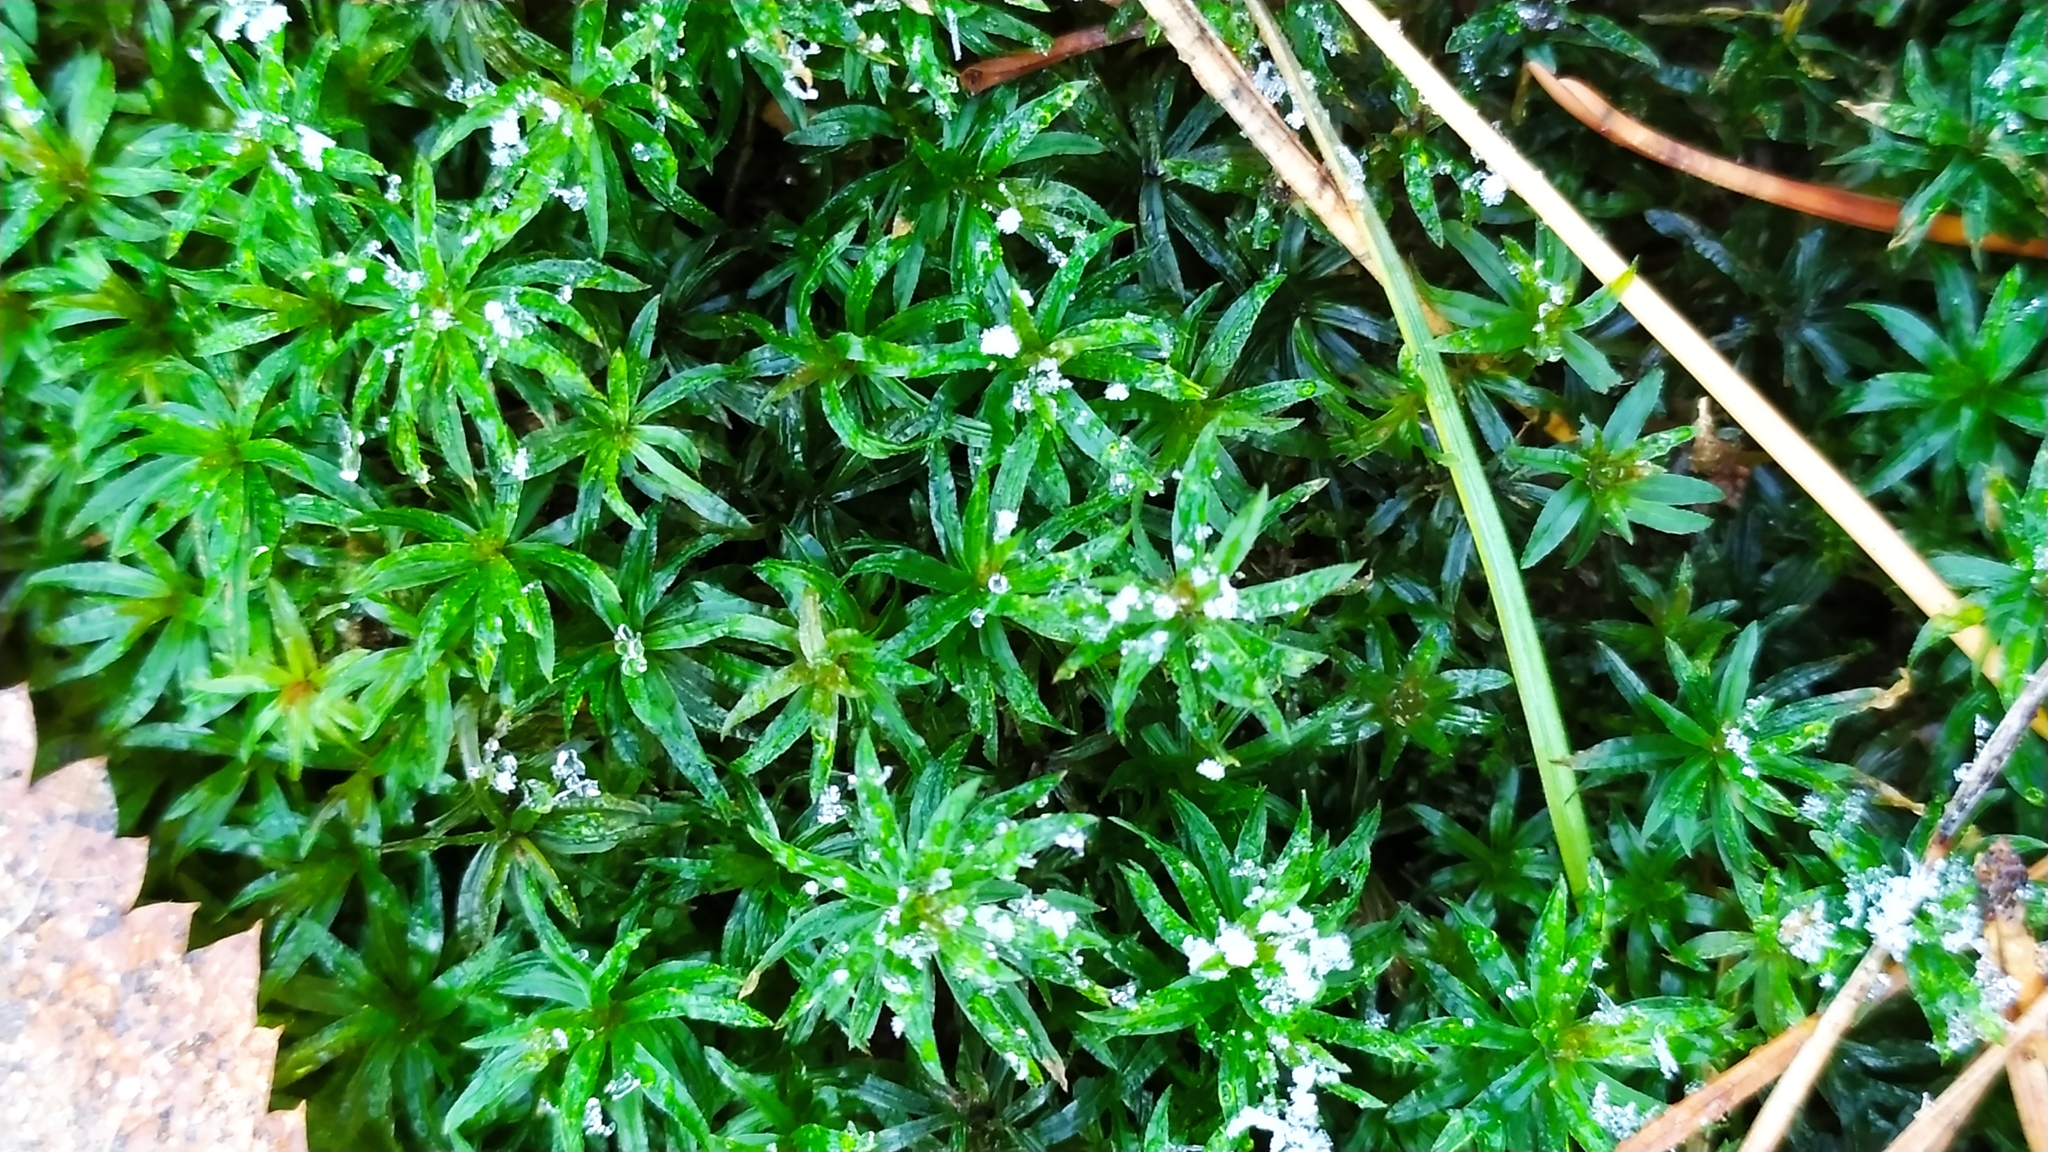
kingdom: Plantae
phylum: Bryophyta
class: Polytrichopsida
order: Polytrichales
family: Polytrichaceae
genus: Atrichum
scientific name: Atrichum undulatum
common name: Common smoothcap
